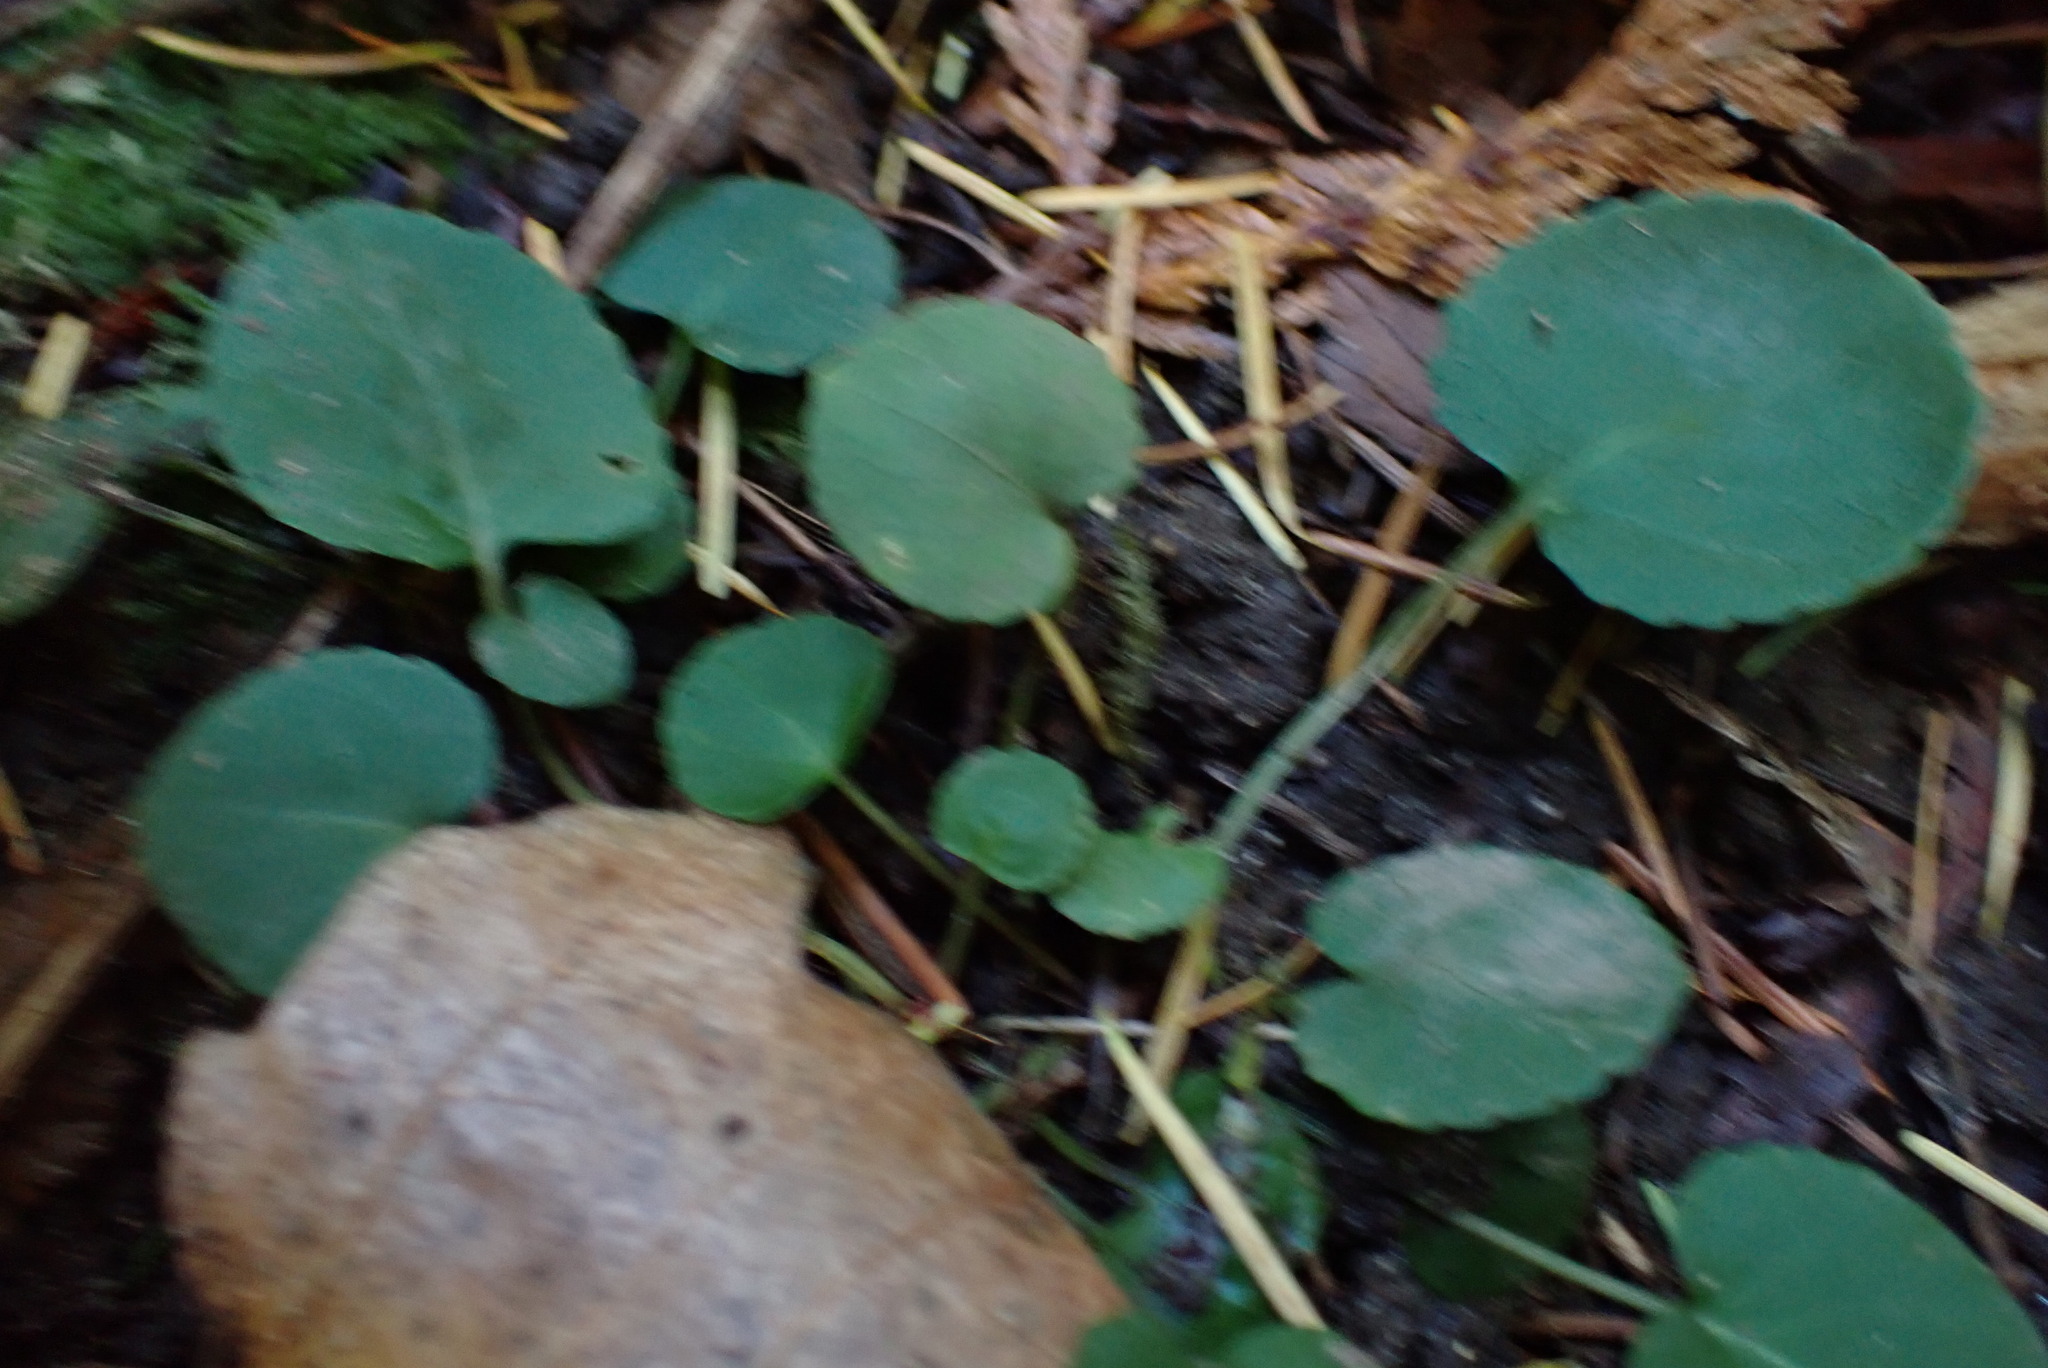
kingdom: Plantae
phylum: Tracheophyta
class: Magnoliopsida
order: Malpighiales
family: Violaceae
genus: Viola
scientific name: Viola sempervirens
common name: Evergreen violet
